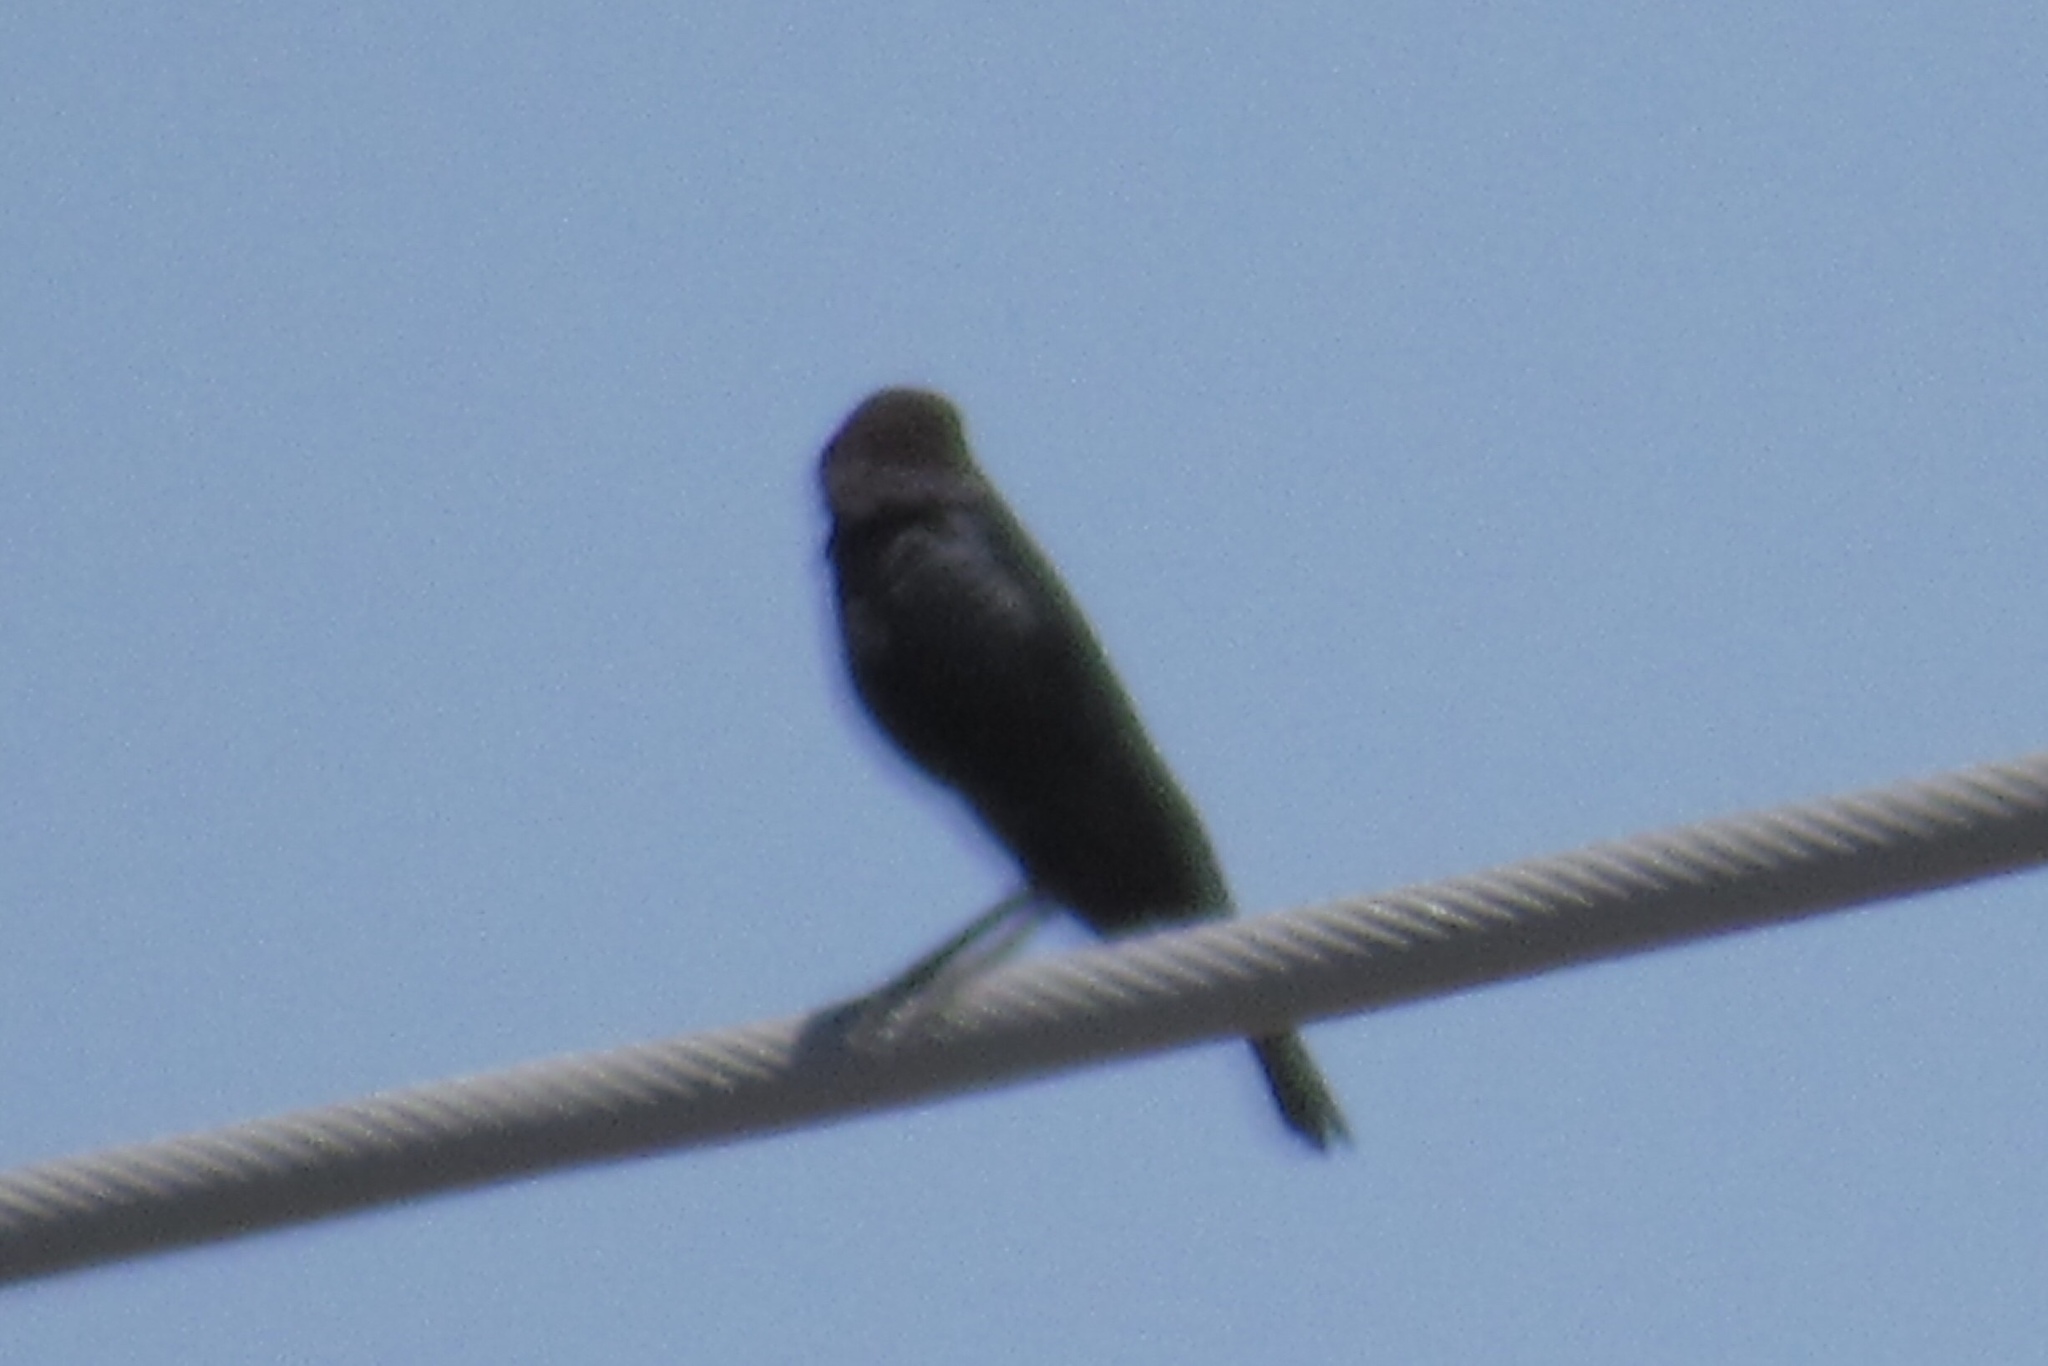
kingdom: Animalia
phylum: Chordata
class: Aves
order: Passeriformes
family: Icteridae
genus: Molothrus
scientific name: Molothrus ater
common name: Brown-headed cowbird
